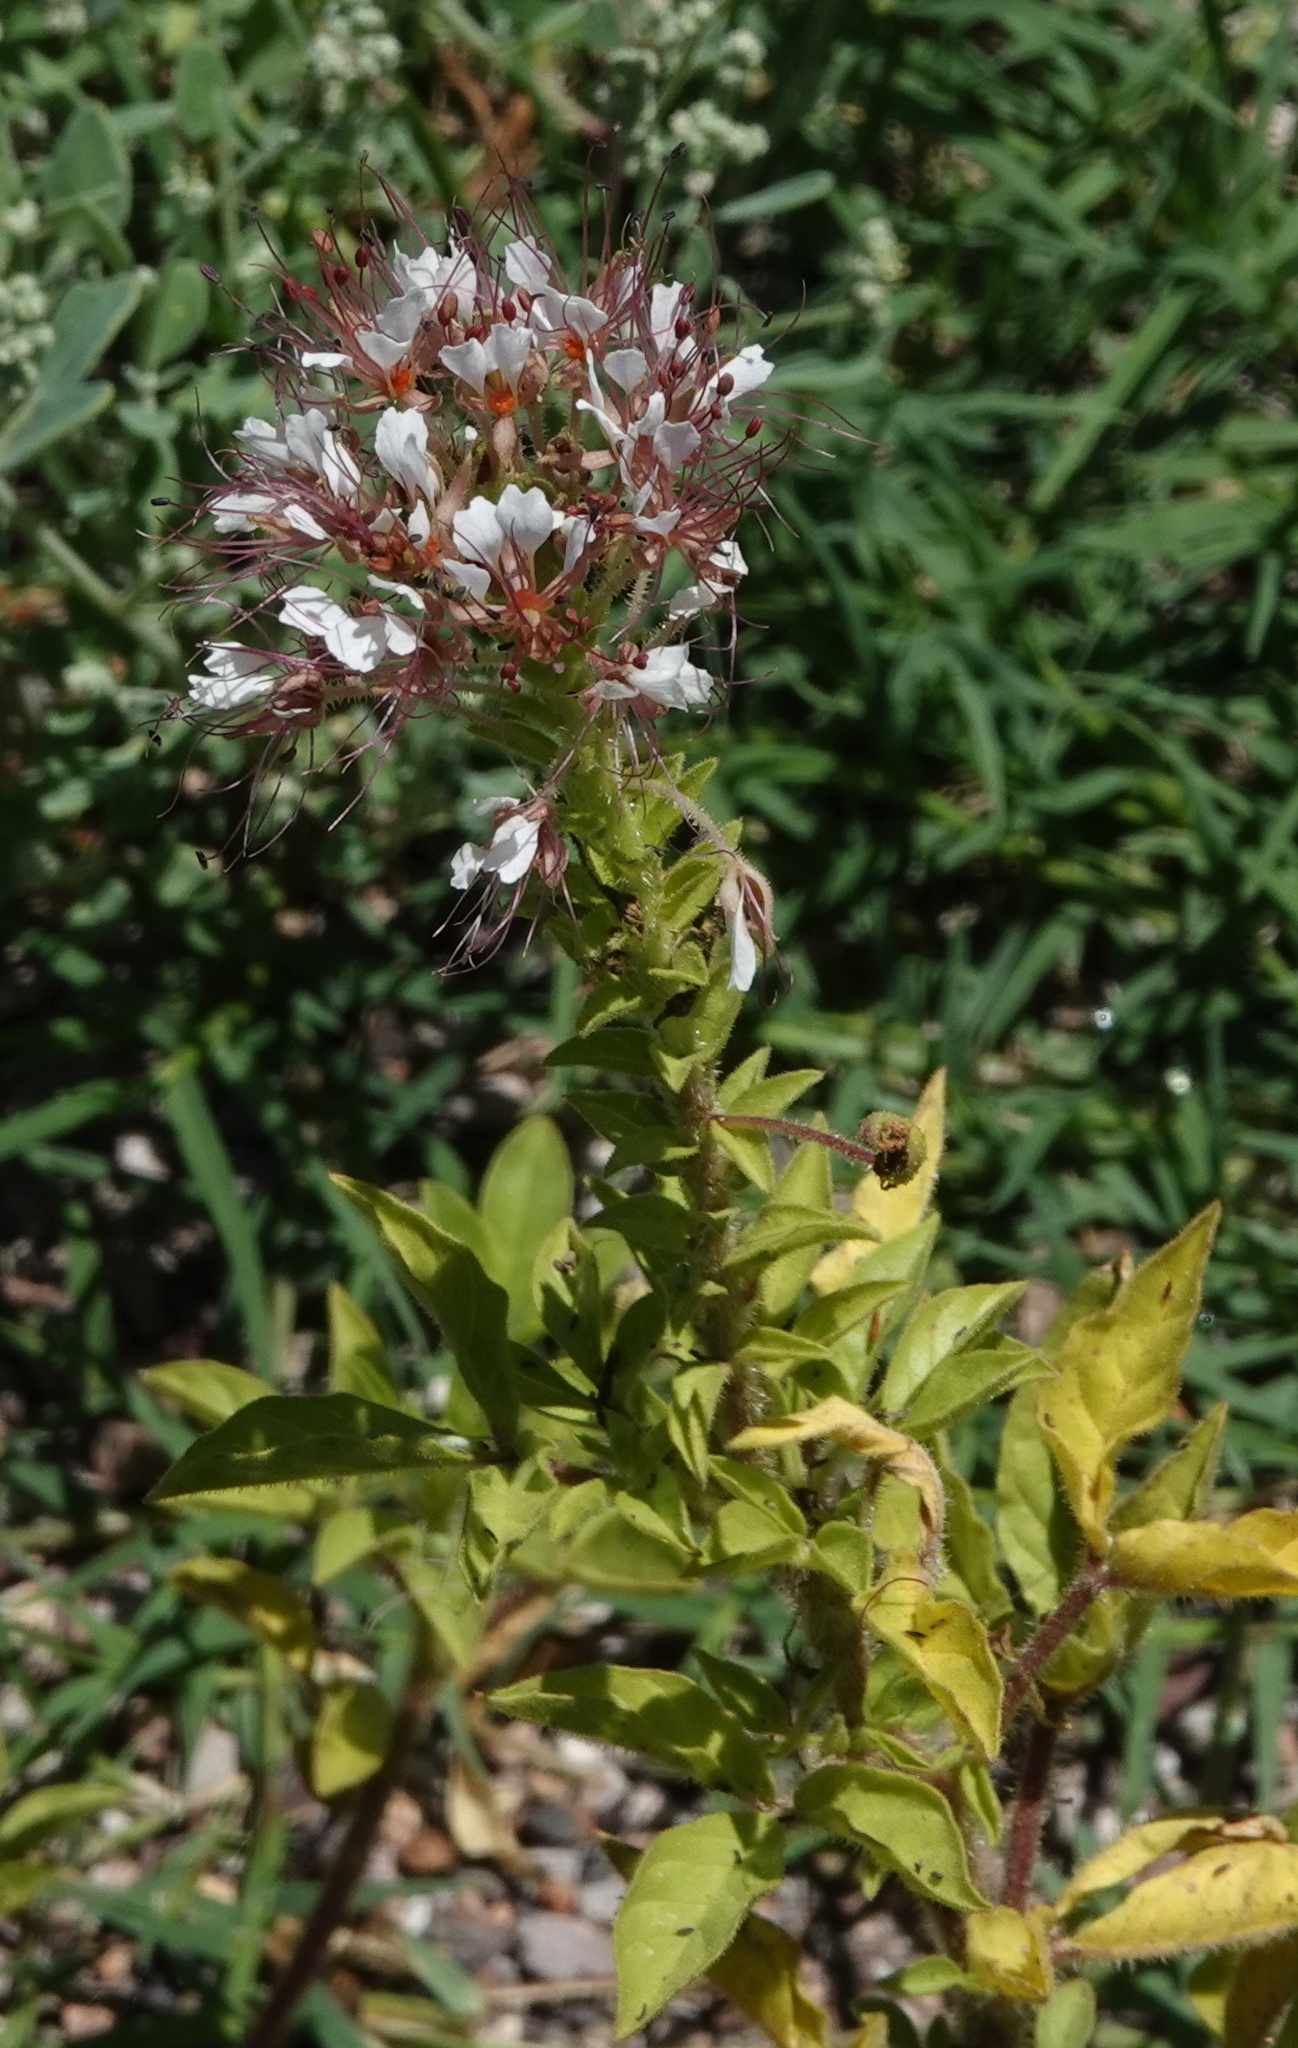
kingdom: Plantae
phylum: Tracheophyta
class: Magnoliopsida
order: Brassicales
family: Cleomaceae
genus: Polanisia
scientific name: Polanisia dodecandra
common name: Clammyweed
